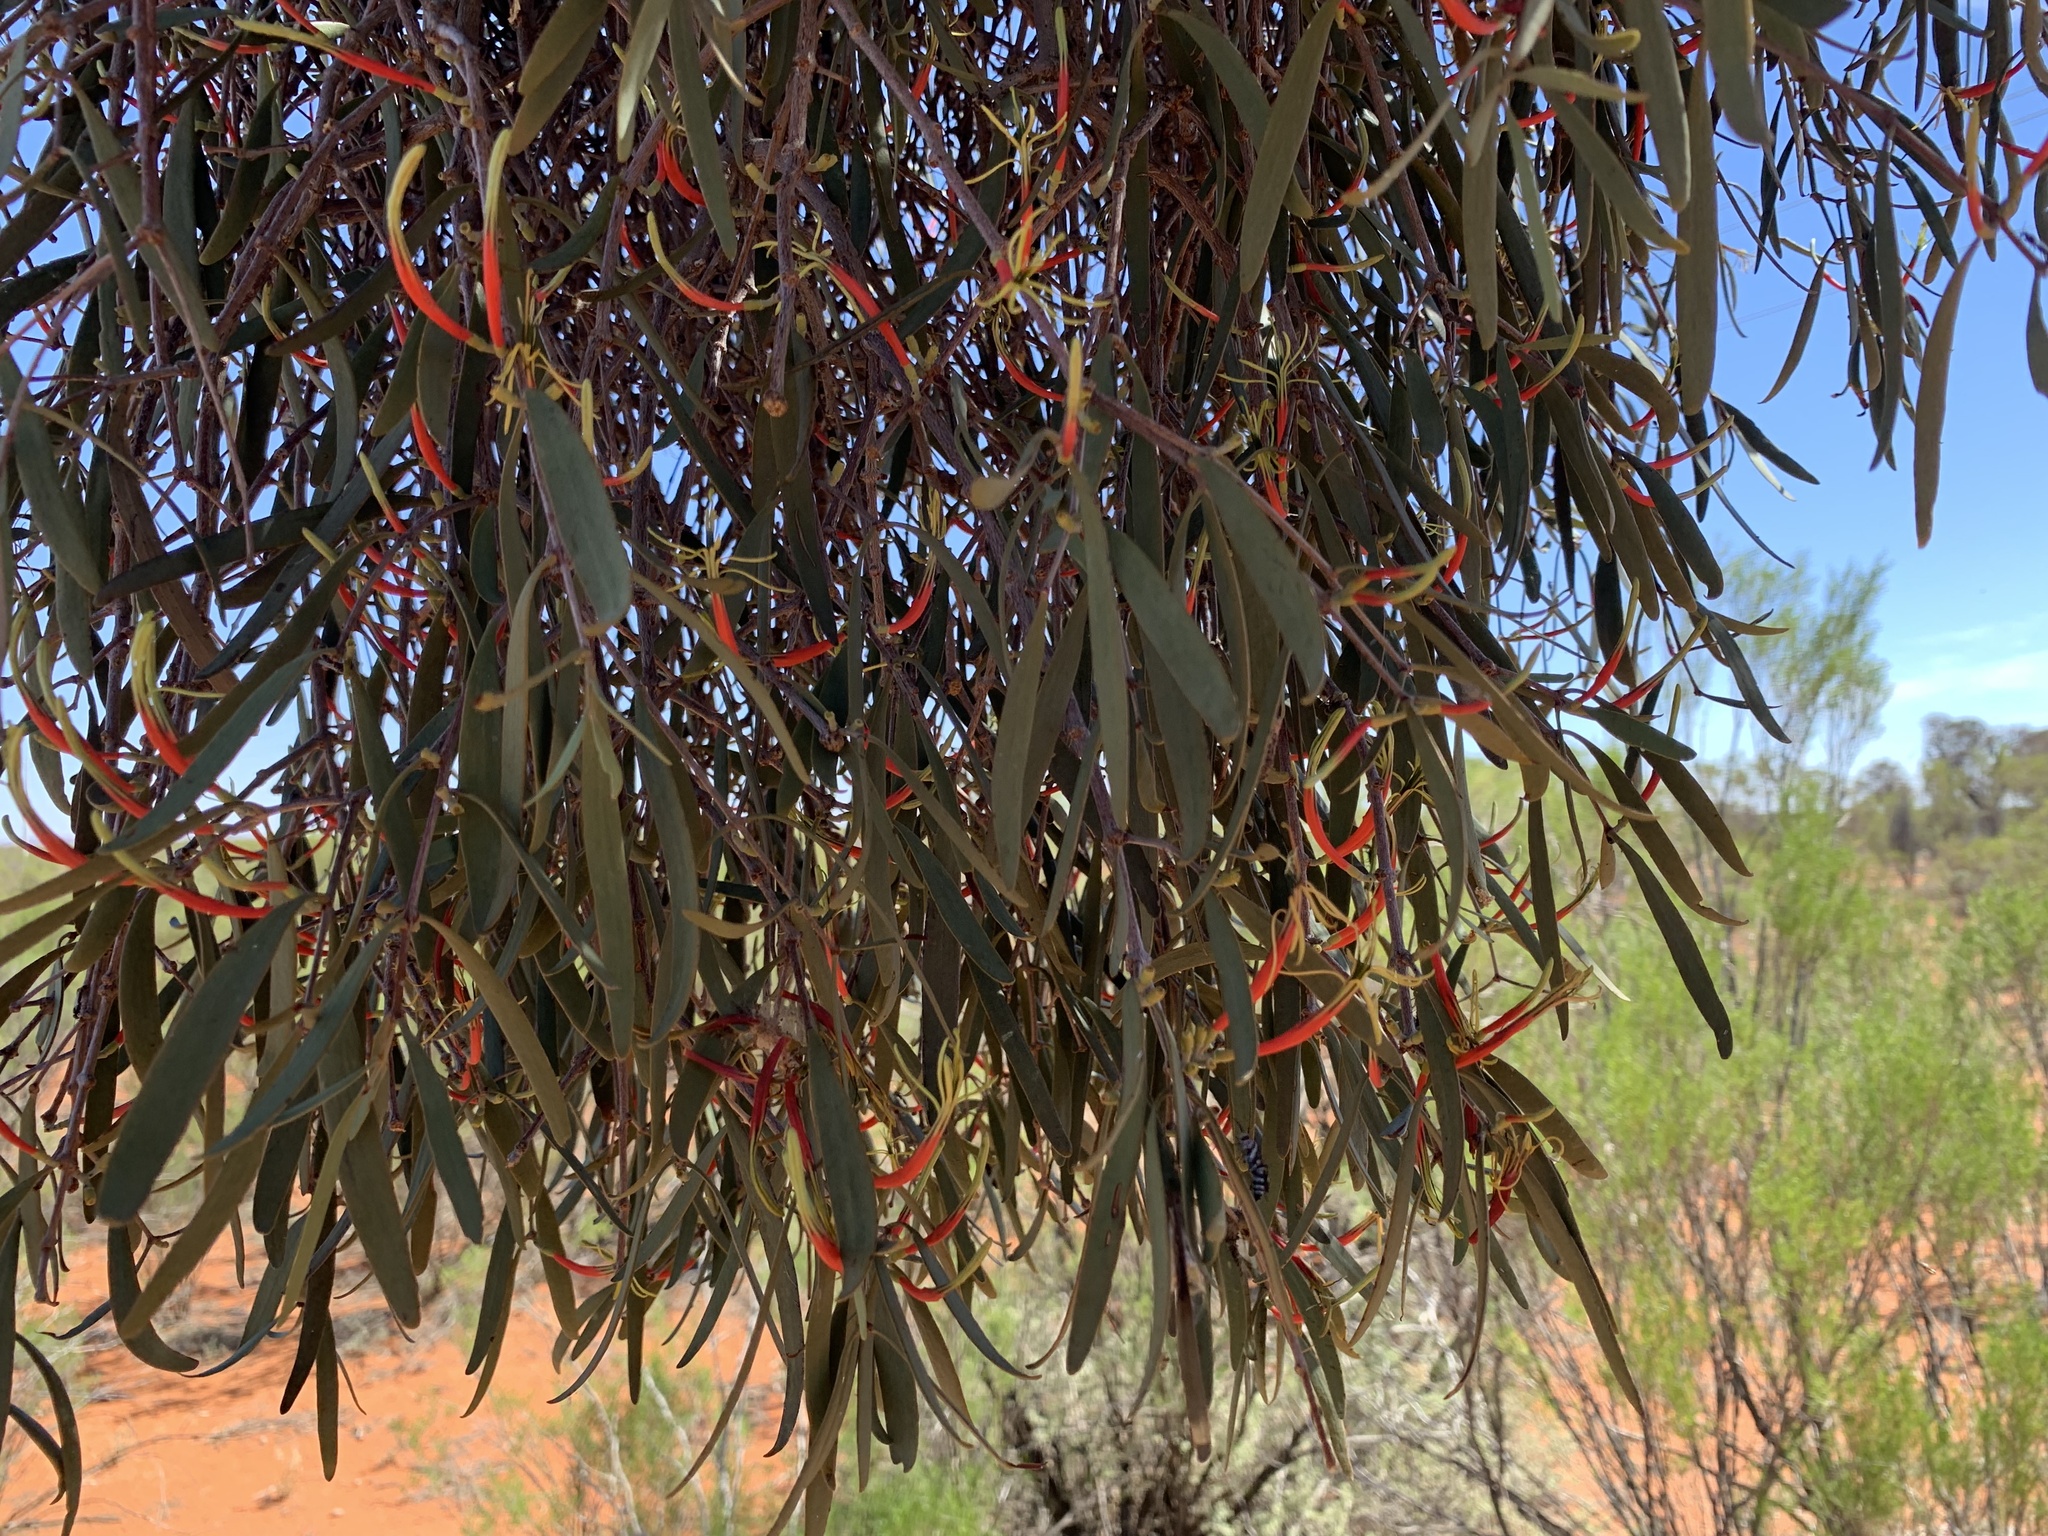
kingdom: Plantae
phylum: Tracheophyta
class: Magnoliopsida
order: Santalales
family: Loranthaceae
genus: Lysiana
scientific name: Lysiana exocarpi
